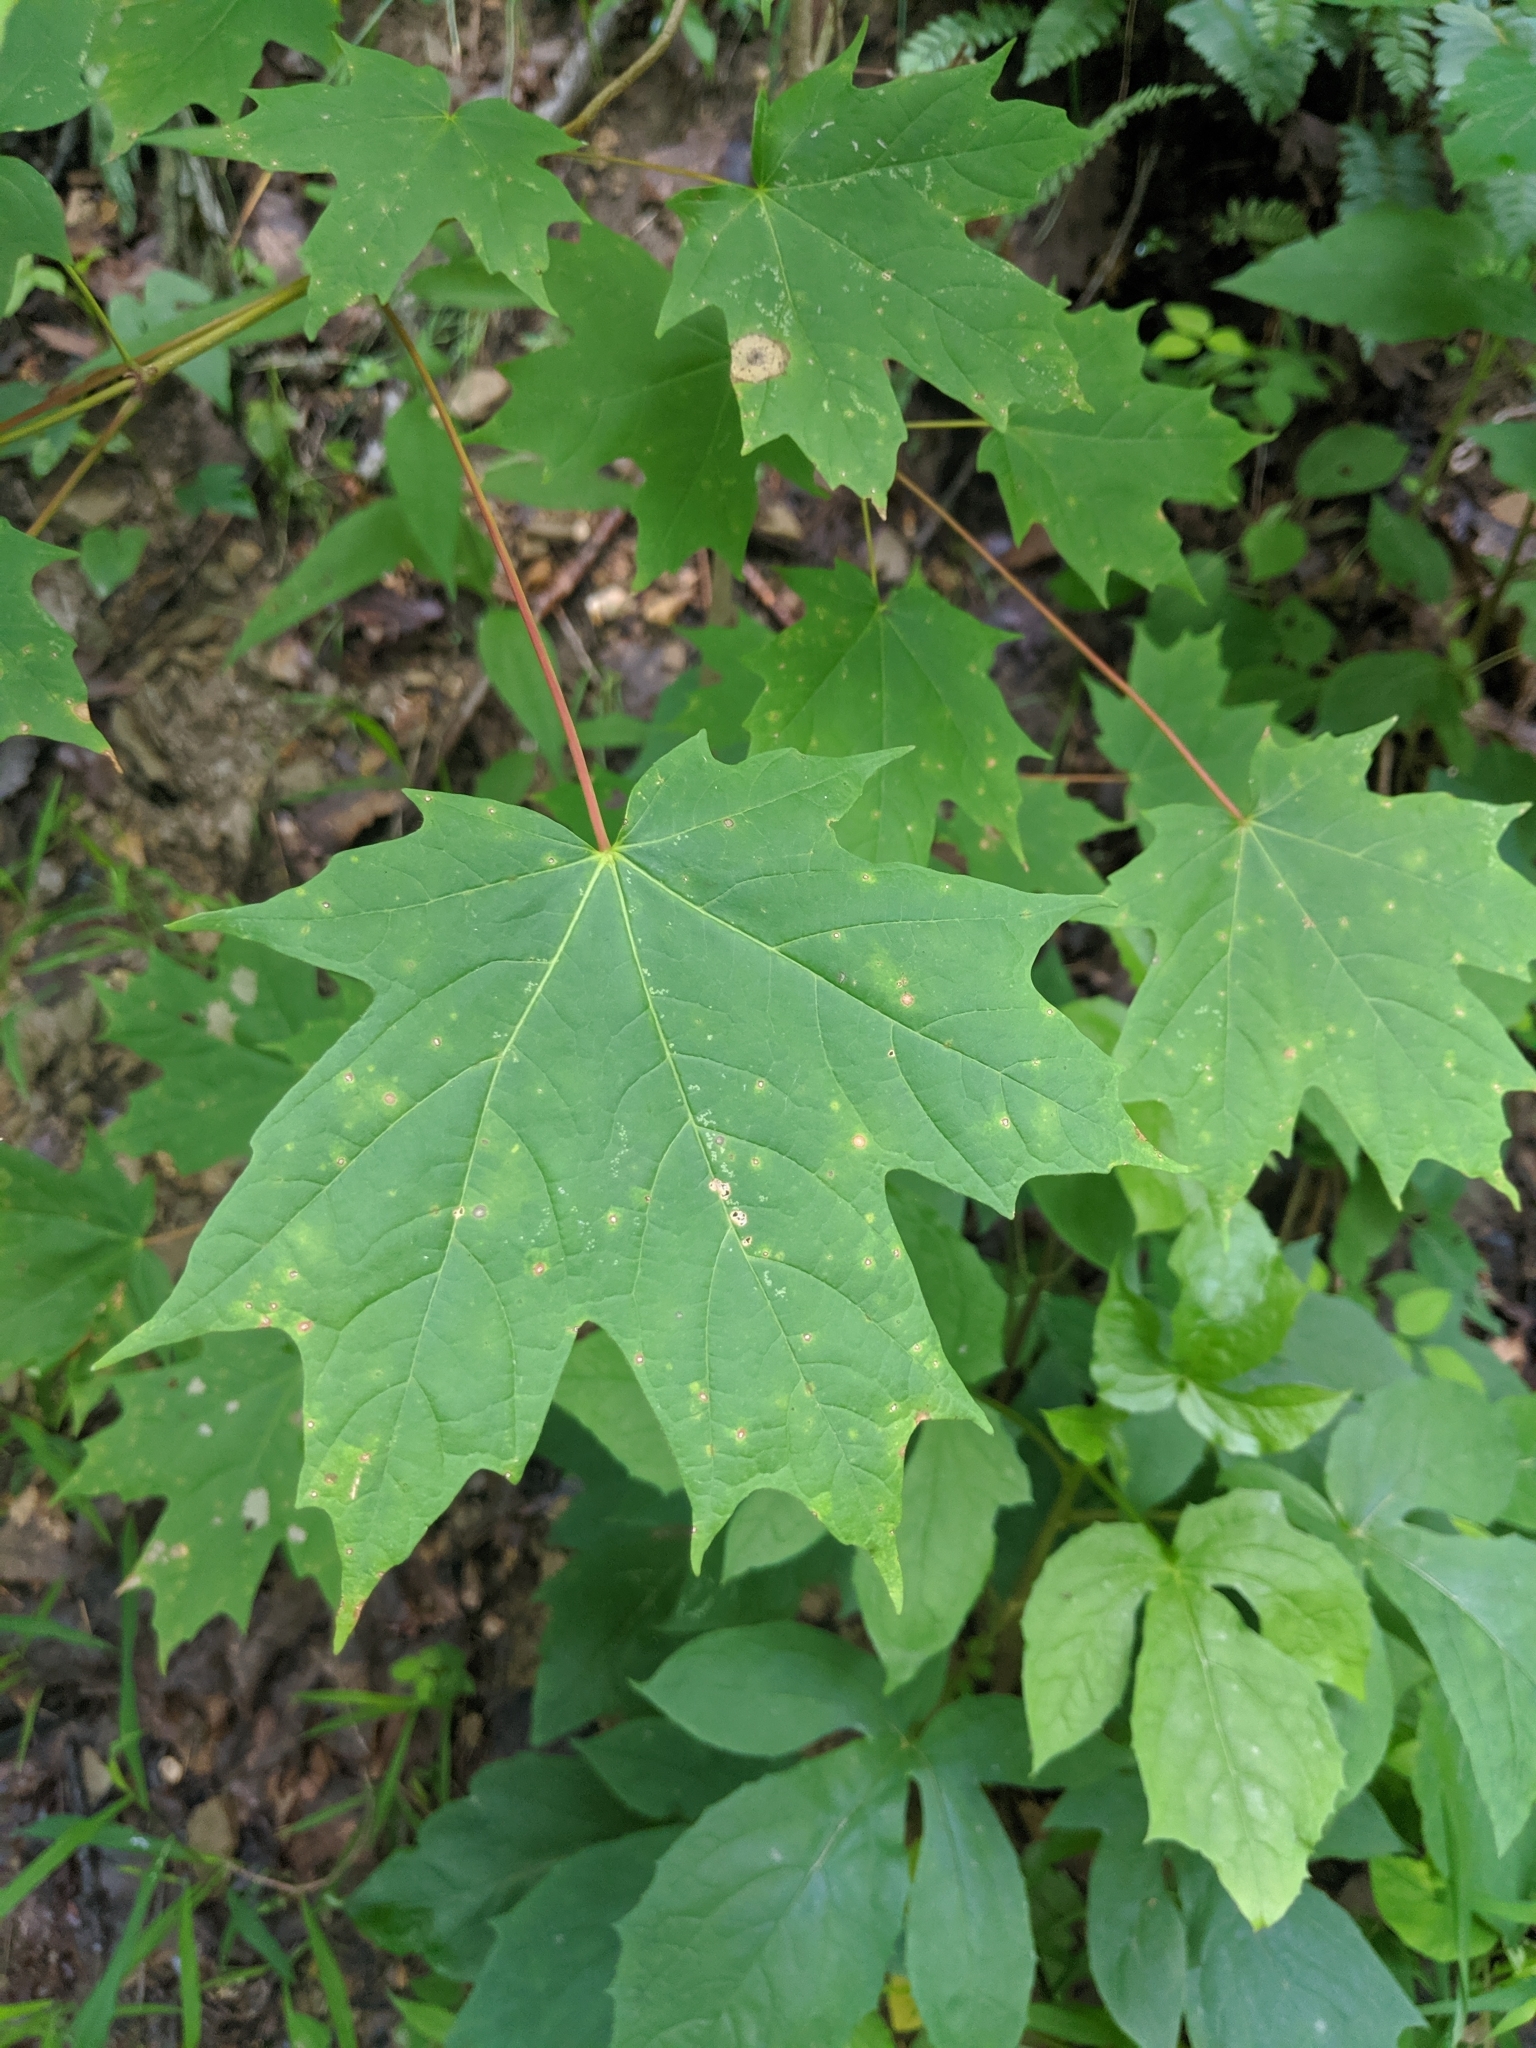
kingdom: Plantae
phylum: Tracheophyta
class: Magnoliopsida
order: Sapindales
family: Sapindaceae
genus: Acer
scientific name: Acer saccharum
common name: Sugar maple
